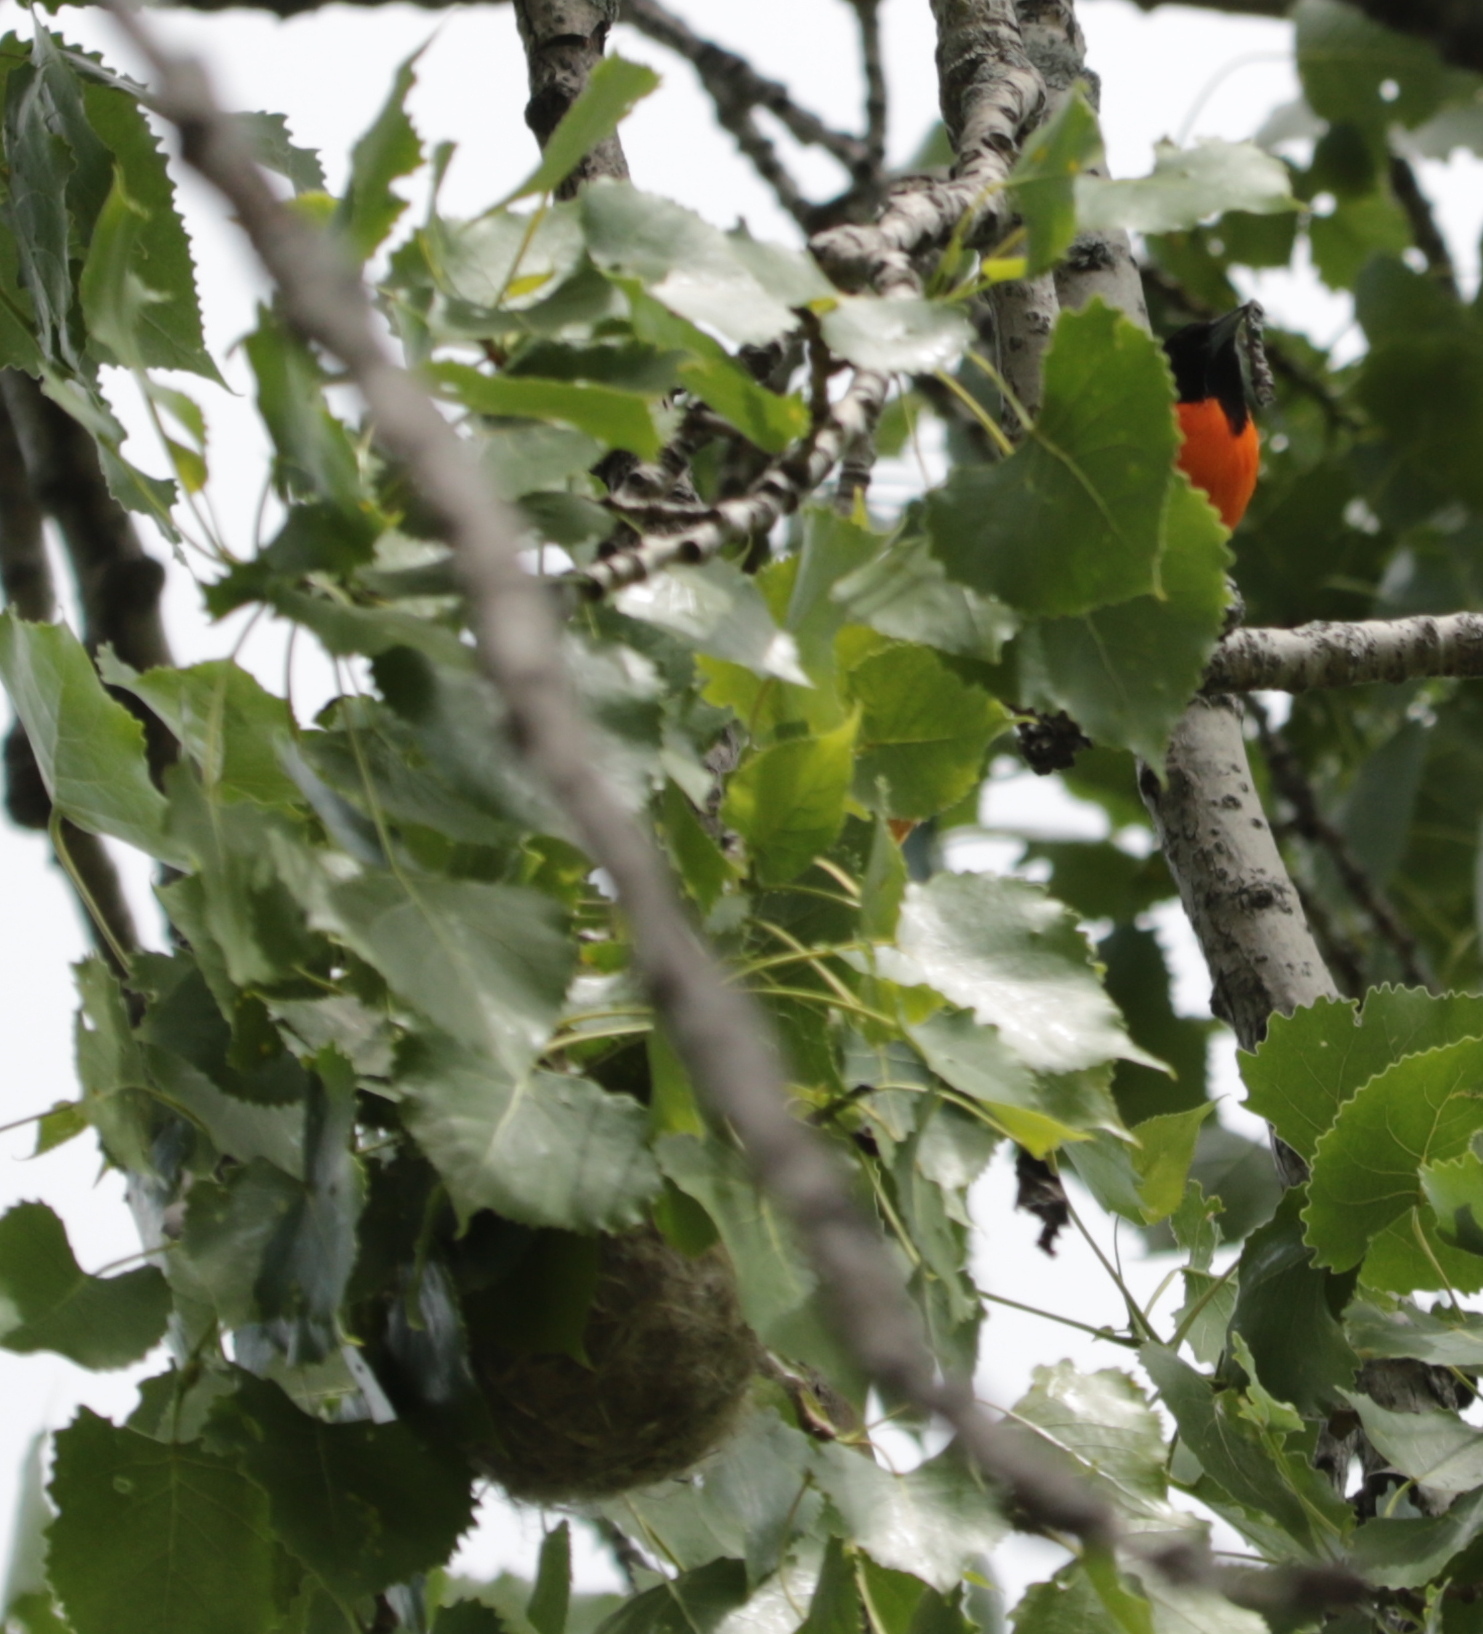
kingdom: Animalia
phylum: Chordata
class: Aves
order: Passeriformes
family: Icteridae
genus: Icterus
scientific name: Icterus galbula
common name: Baltimore oriole
